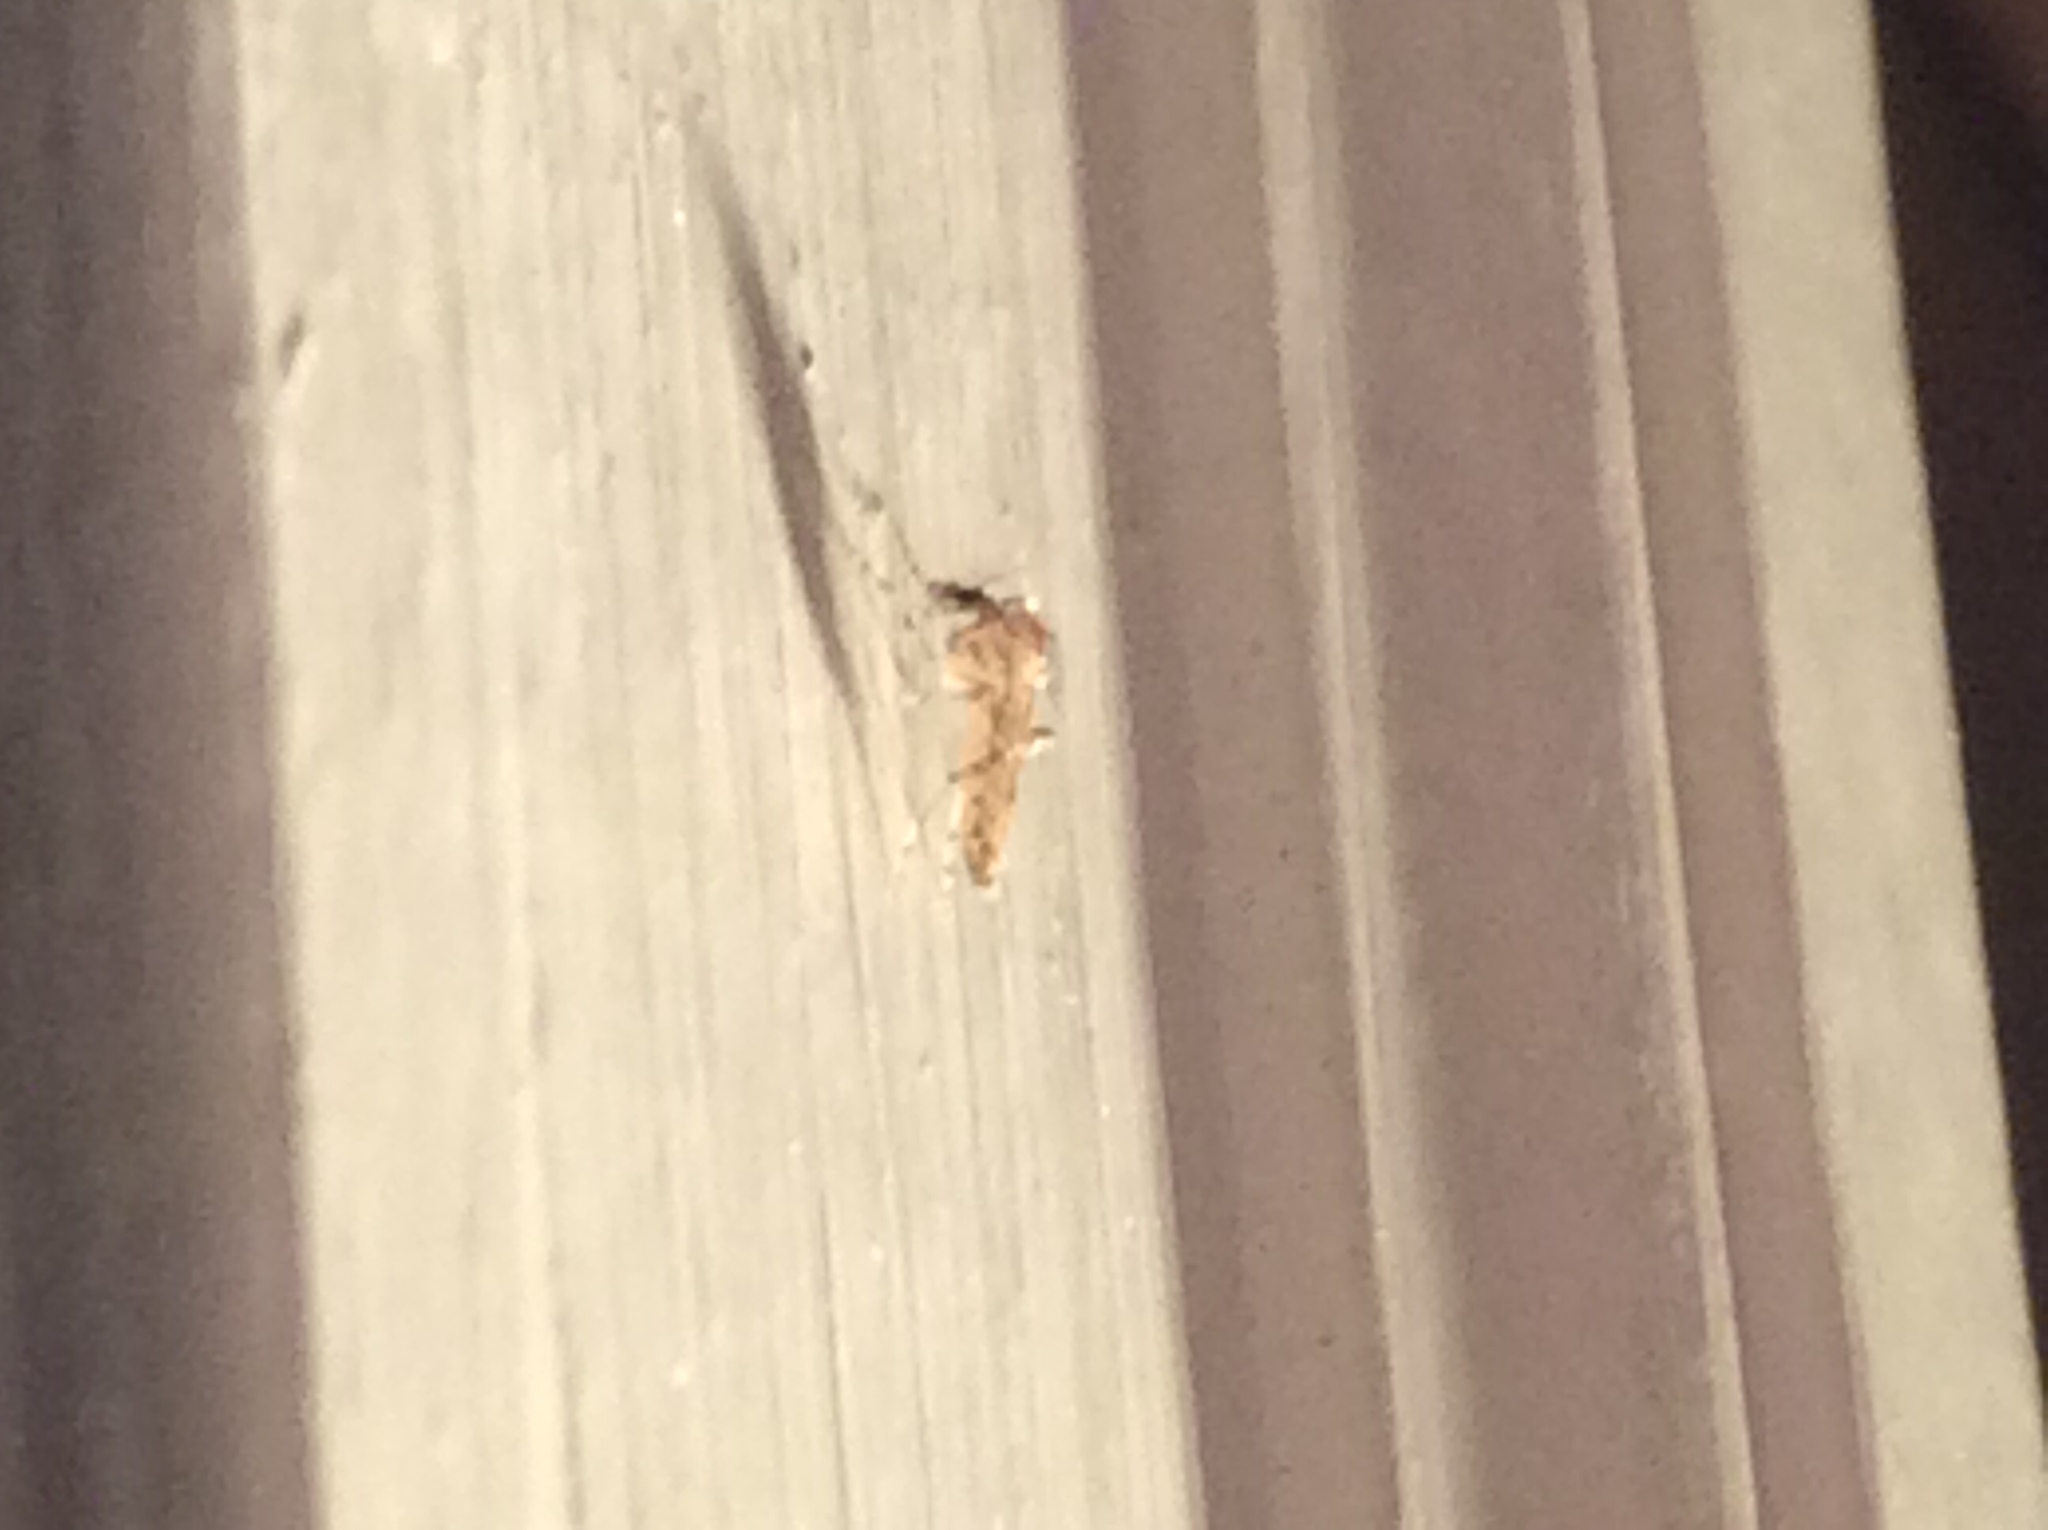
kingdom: Animalia
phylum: Arthropoda
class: Insecta
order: Diptera
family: Chaoboridae
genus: Chaoborus
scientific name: Chaoborus punctipennis
